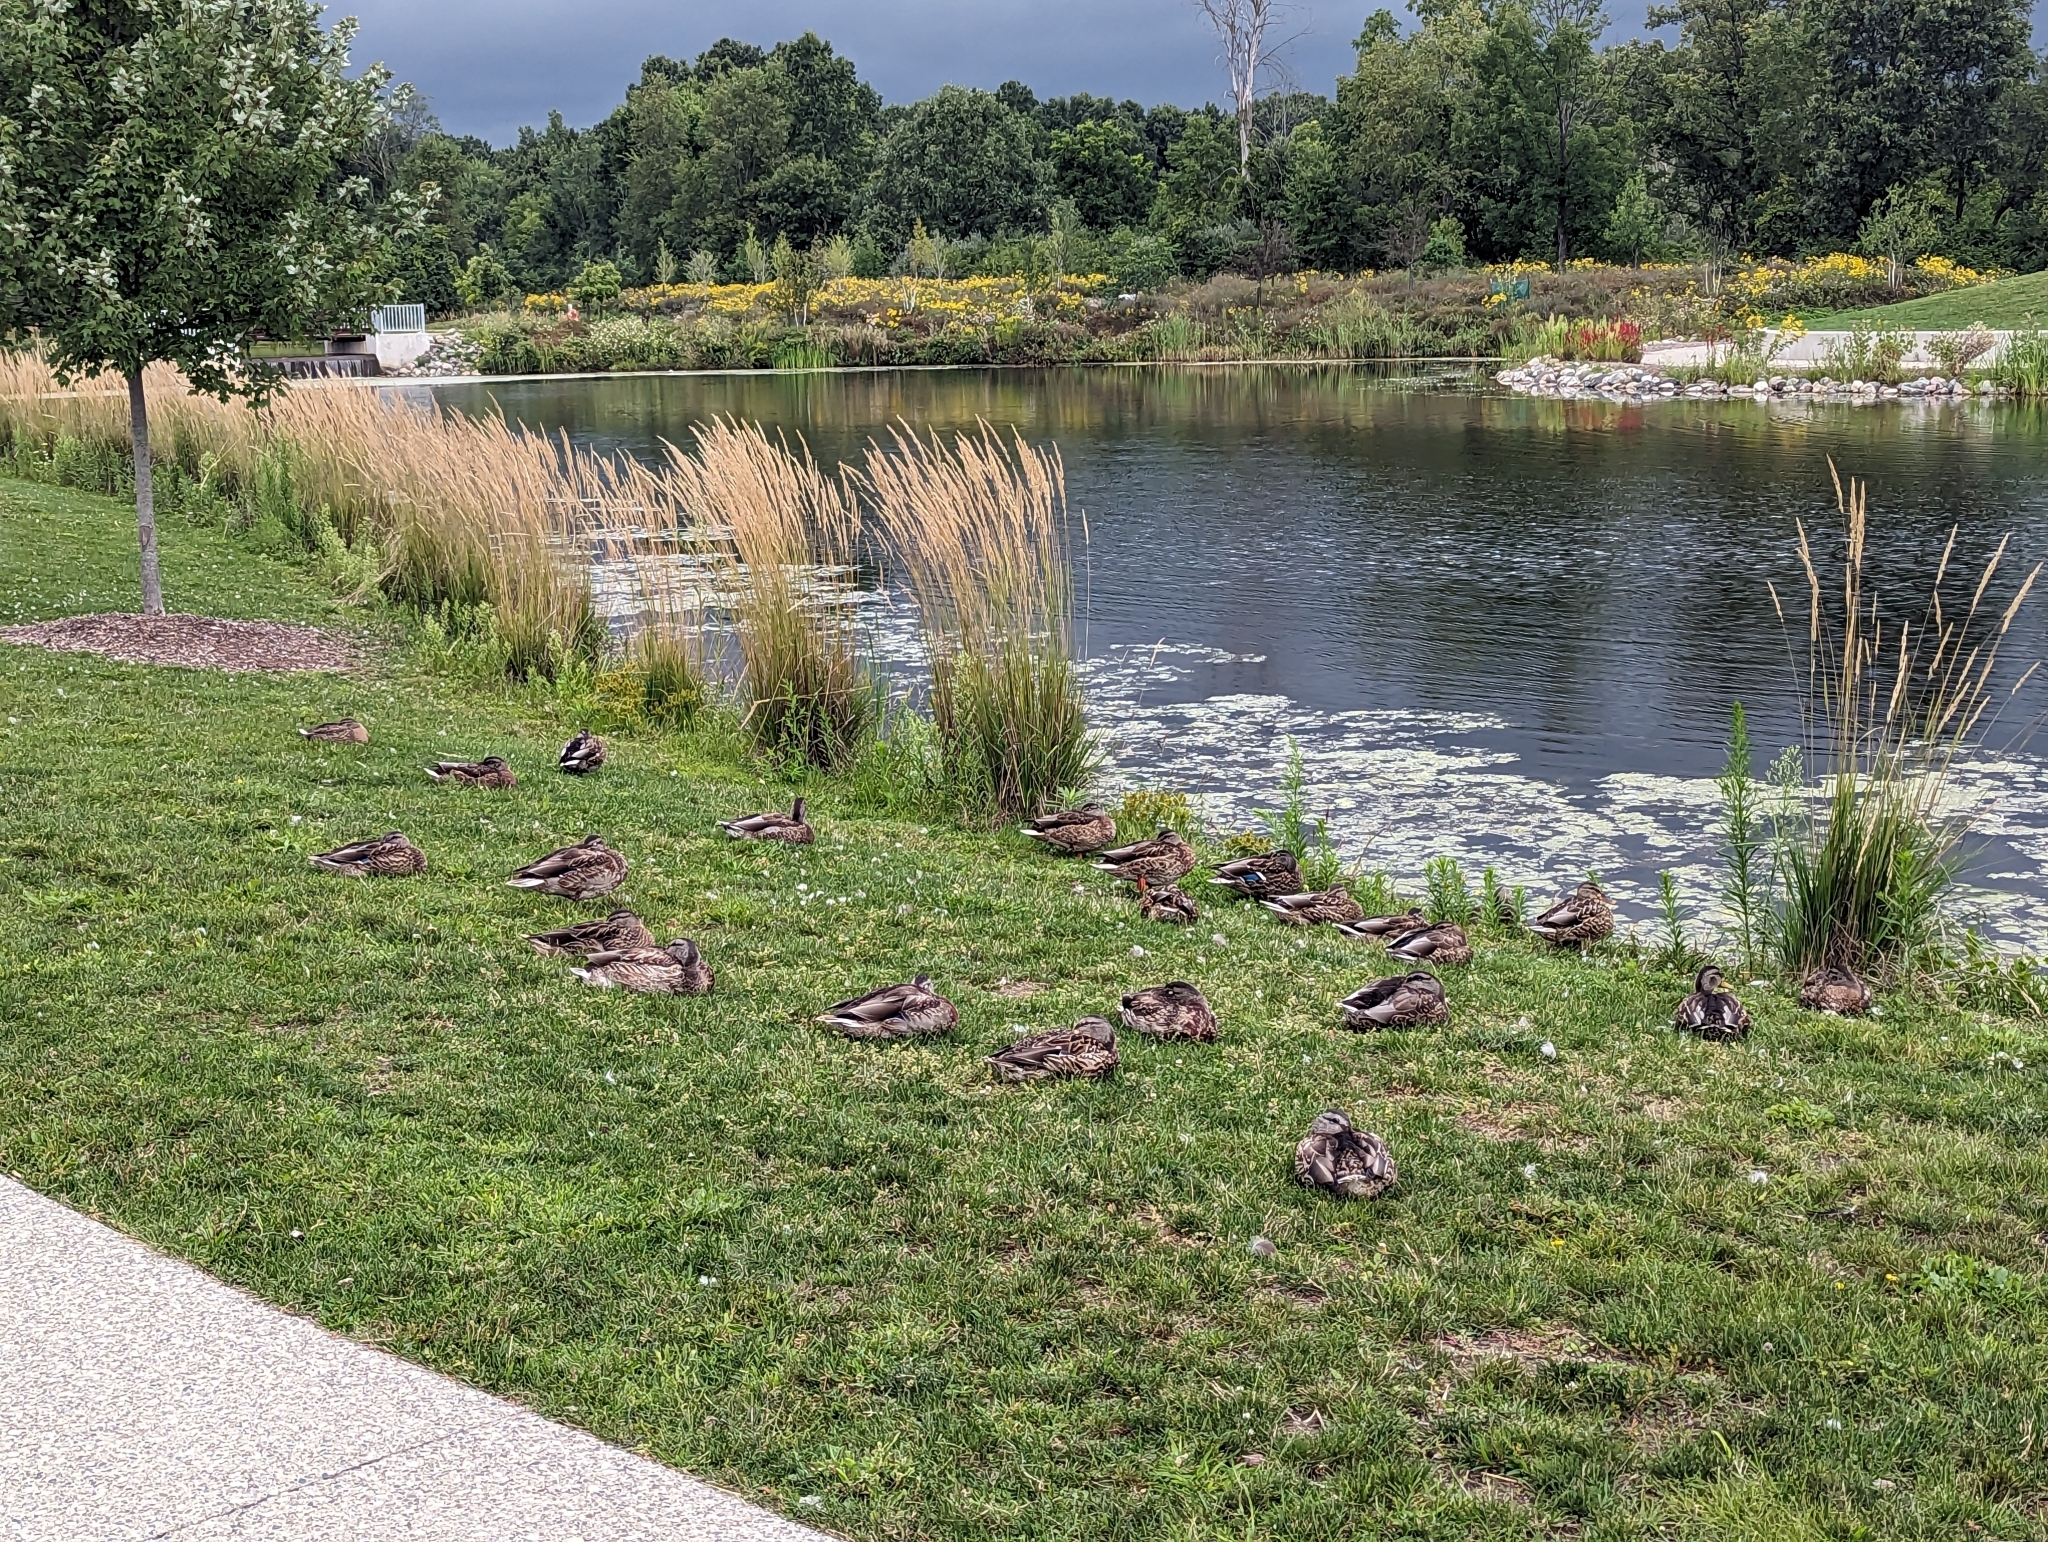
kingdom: Animalia
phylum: Chordata
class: Aves
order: Anseriformes
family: Anatidae
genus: Anas
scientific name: Anas platyrhynchos
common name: Mallard
